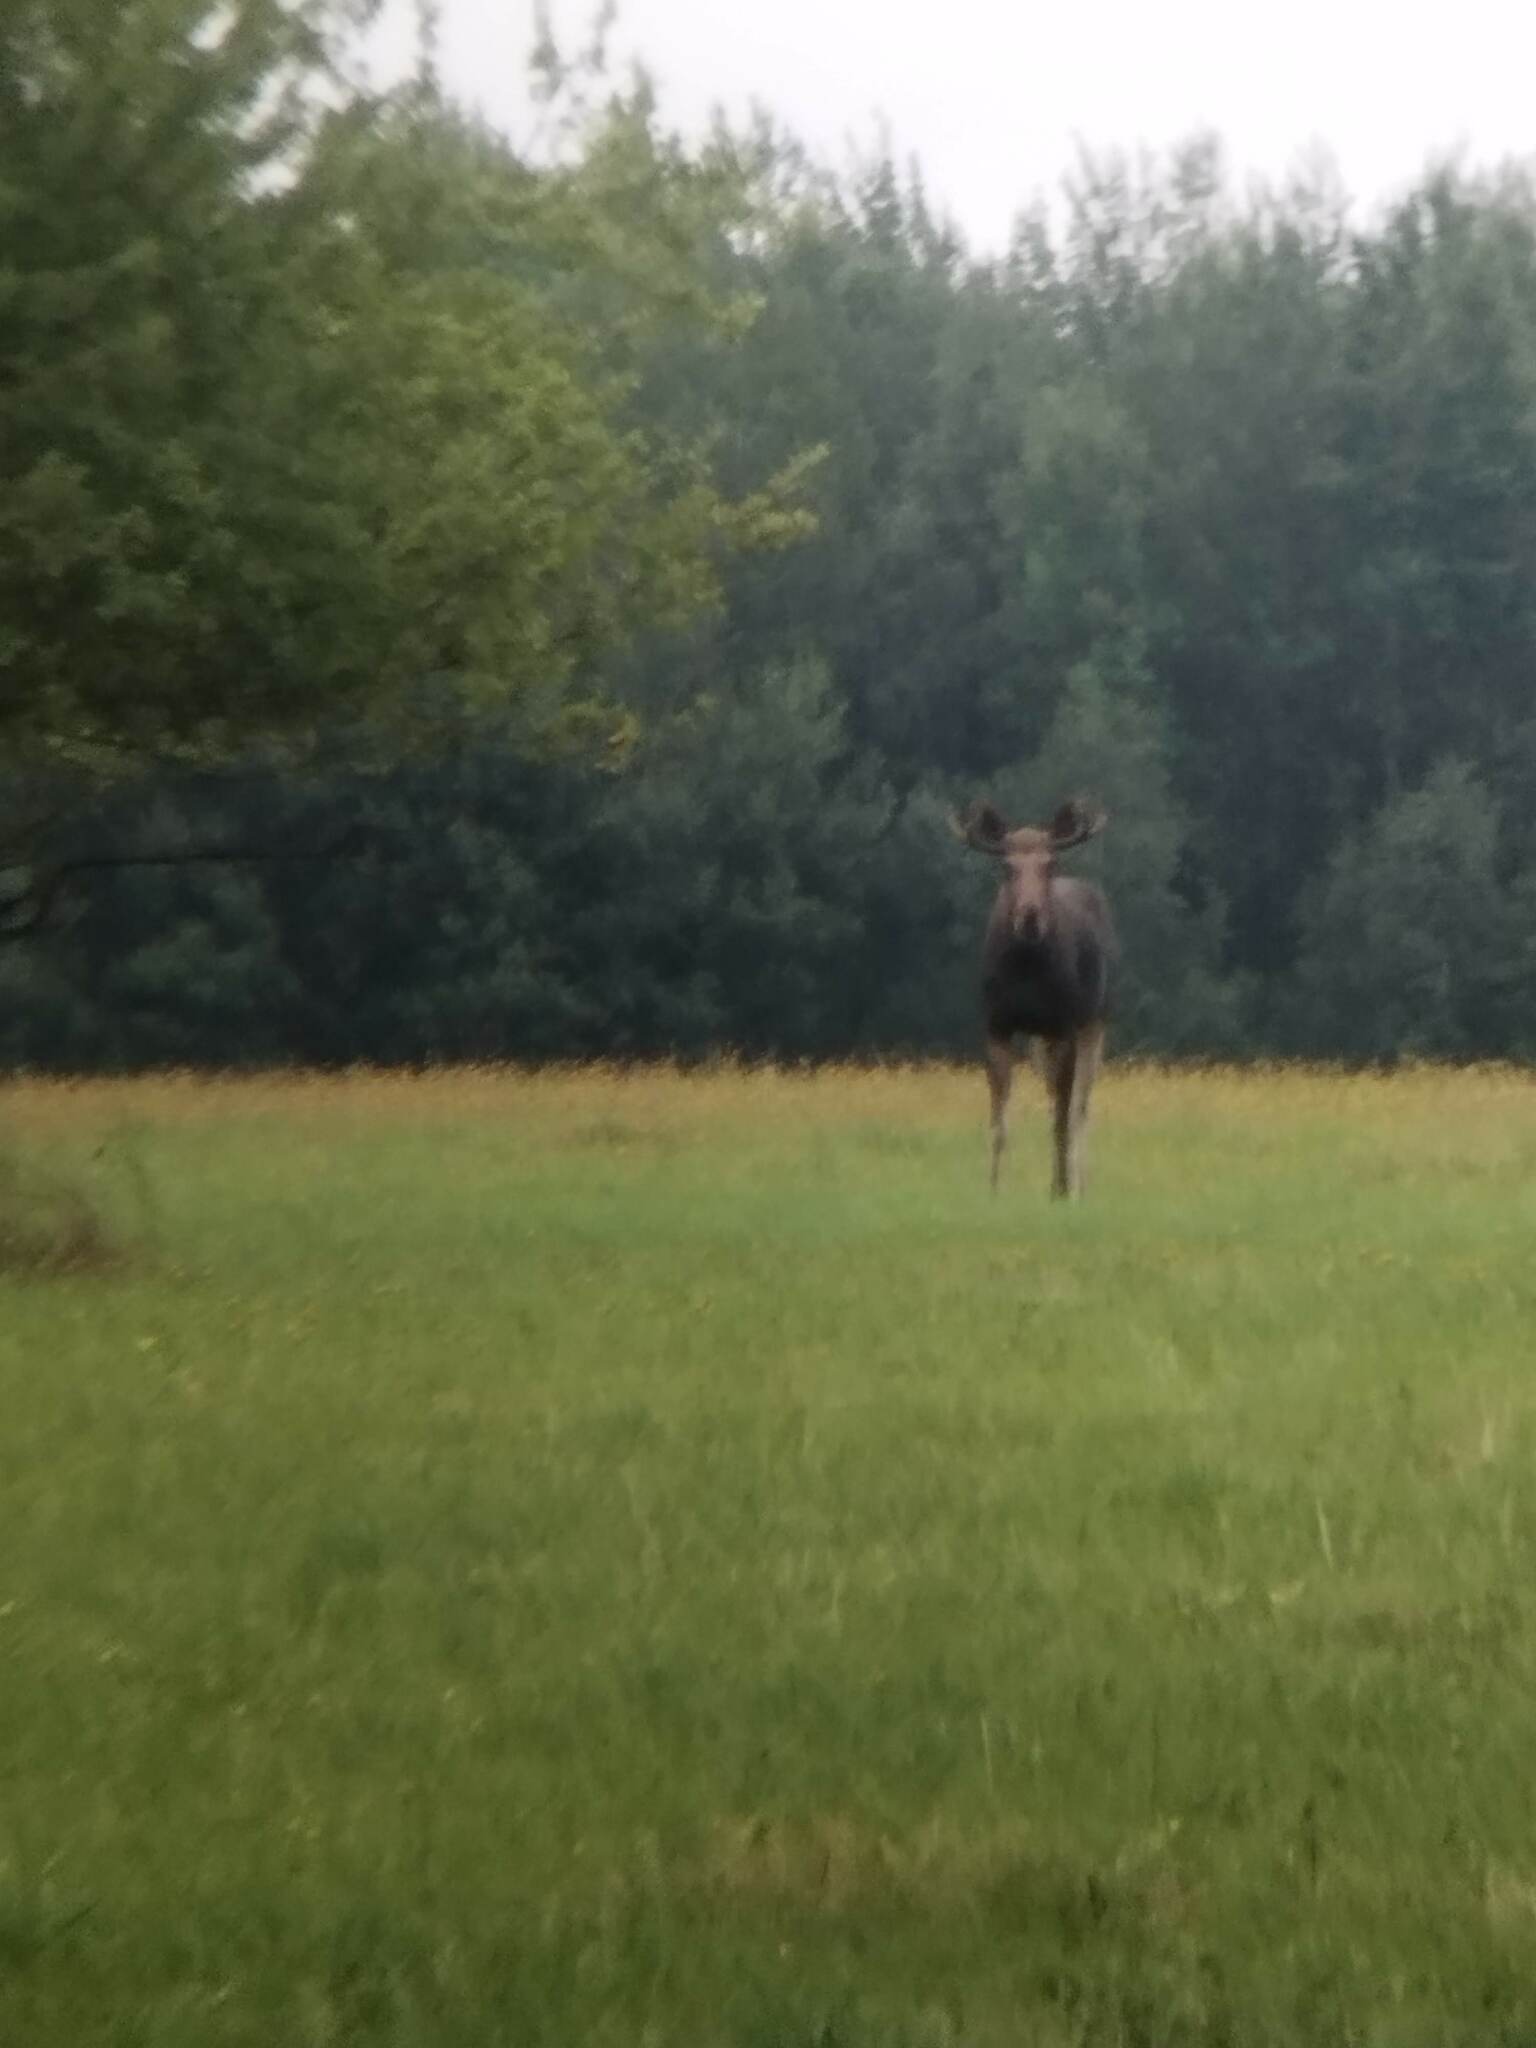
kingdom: Animalia
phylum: Chordata
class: Mammalia
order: Artiodactyla
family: Cervidae
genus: Alces
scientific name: Alces alces
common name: Moose
